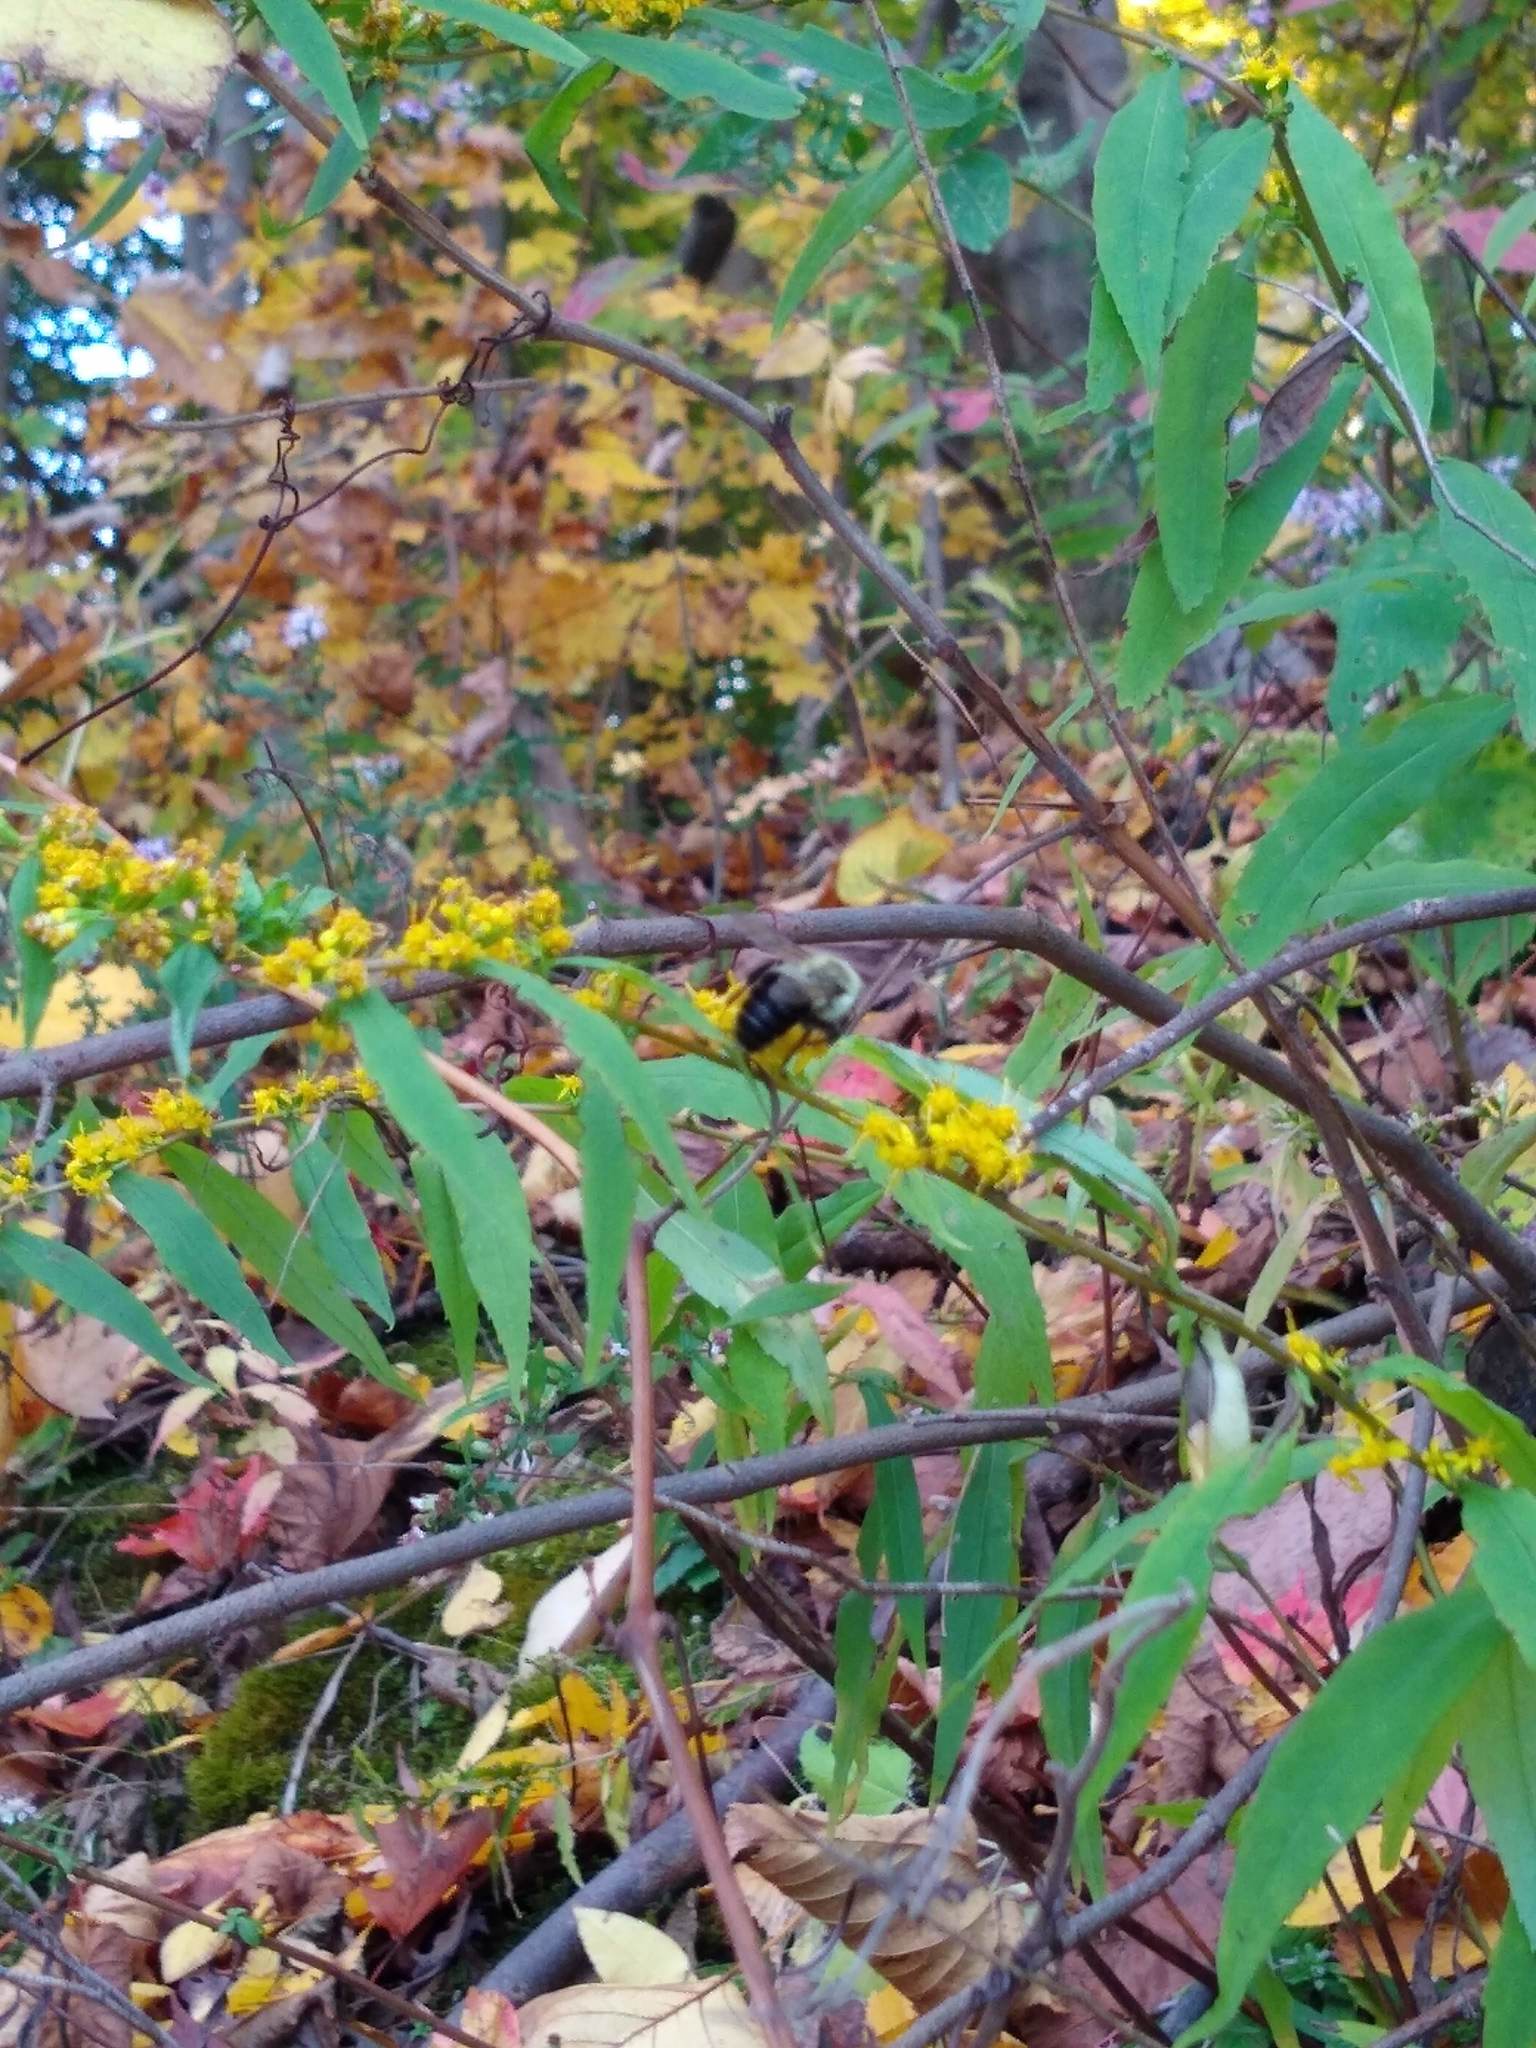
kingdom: Animalia
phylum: Arthropoda
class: Insecta
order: Hymenoptera
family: Apidae
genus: Bombus
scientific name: Bombus impatiens
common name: Common eastern bumble bee
